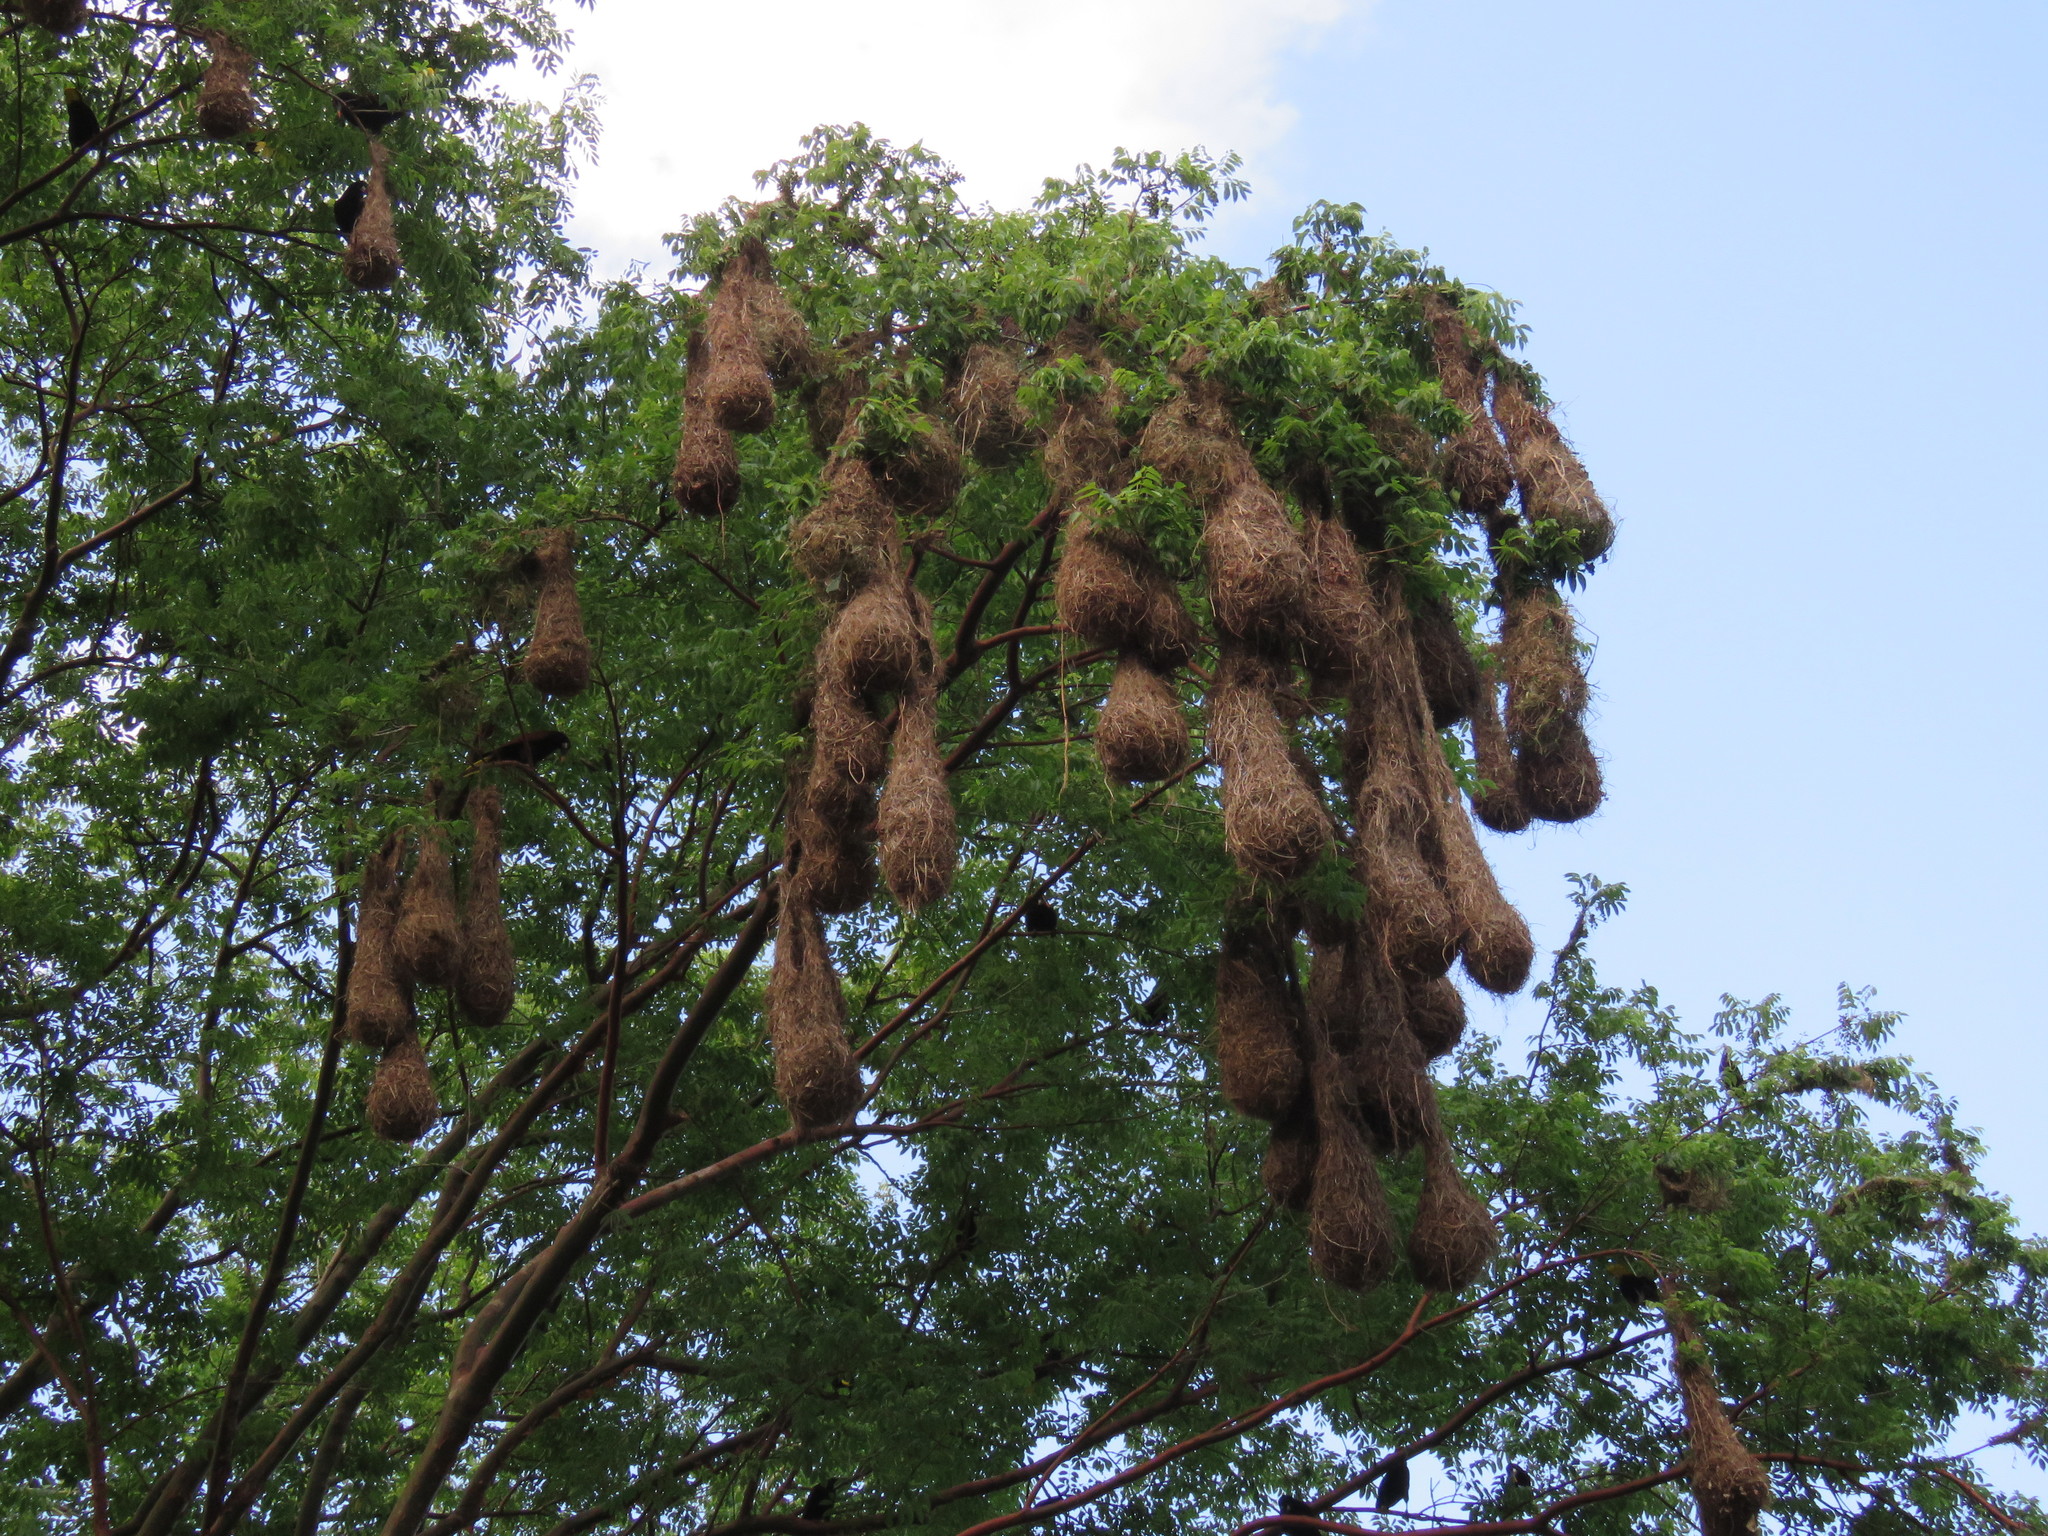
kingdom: Animalia
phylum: Chordata
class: Aves
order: Passeriformes
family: Icteridae
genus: Psarocolius
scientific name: Psarocolius montezuma
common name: Montezuma oropendola
